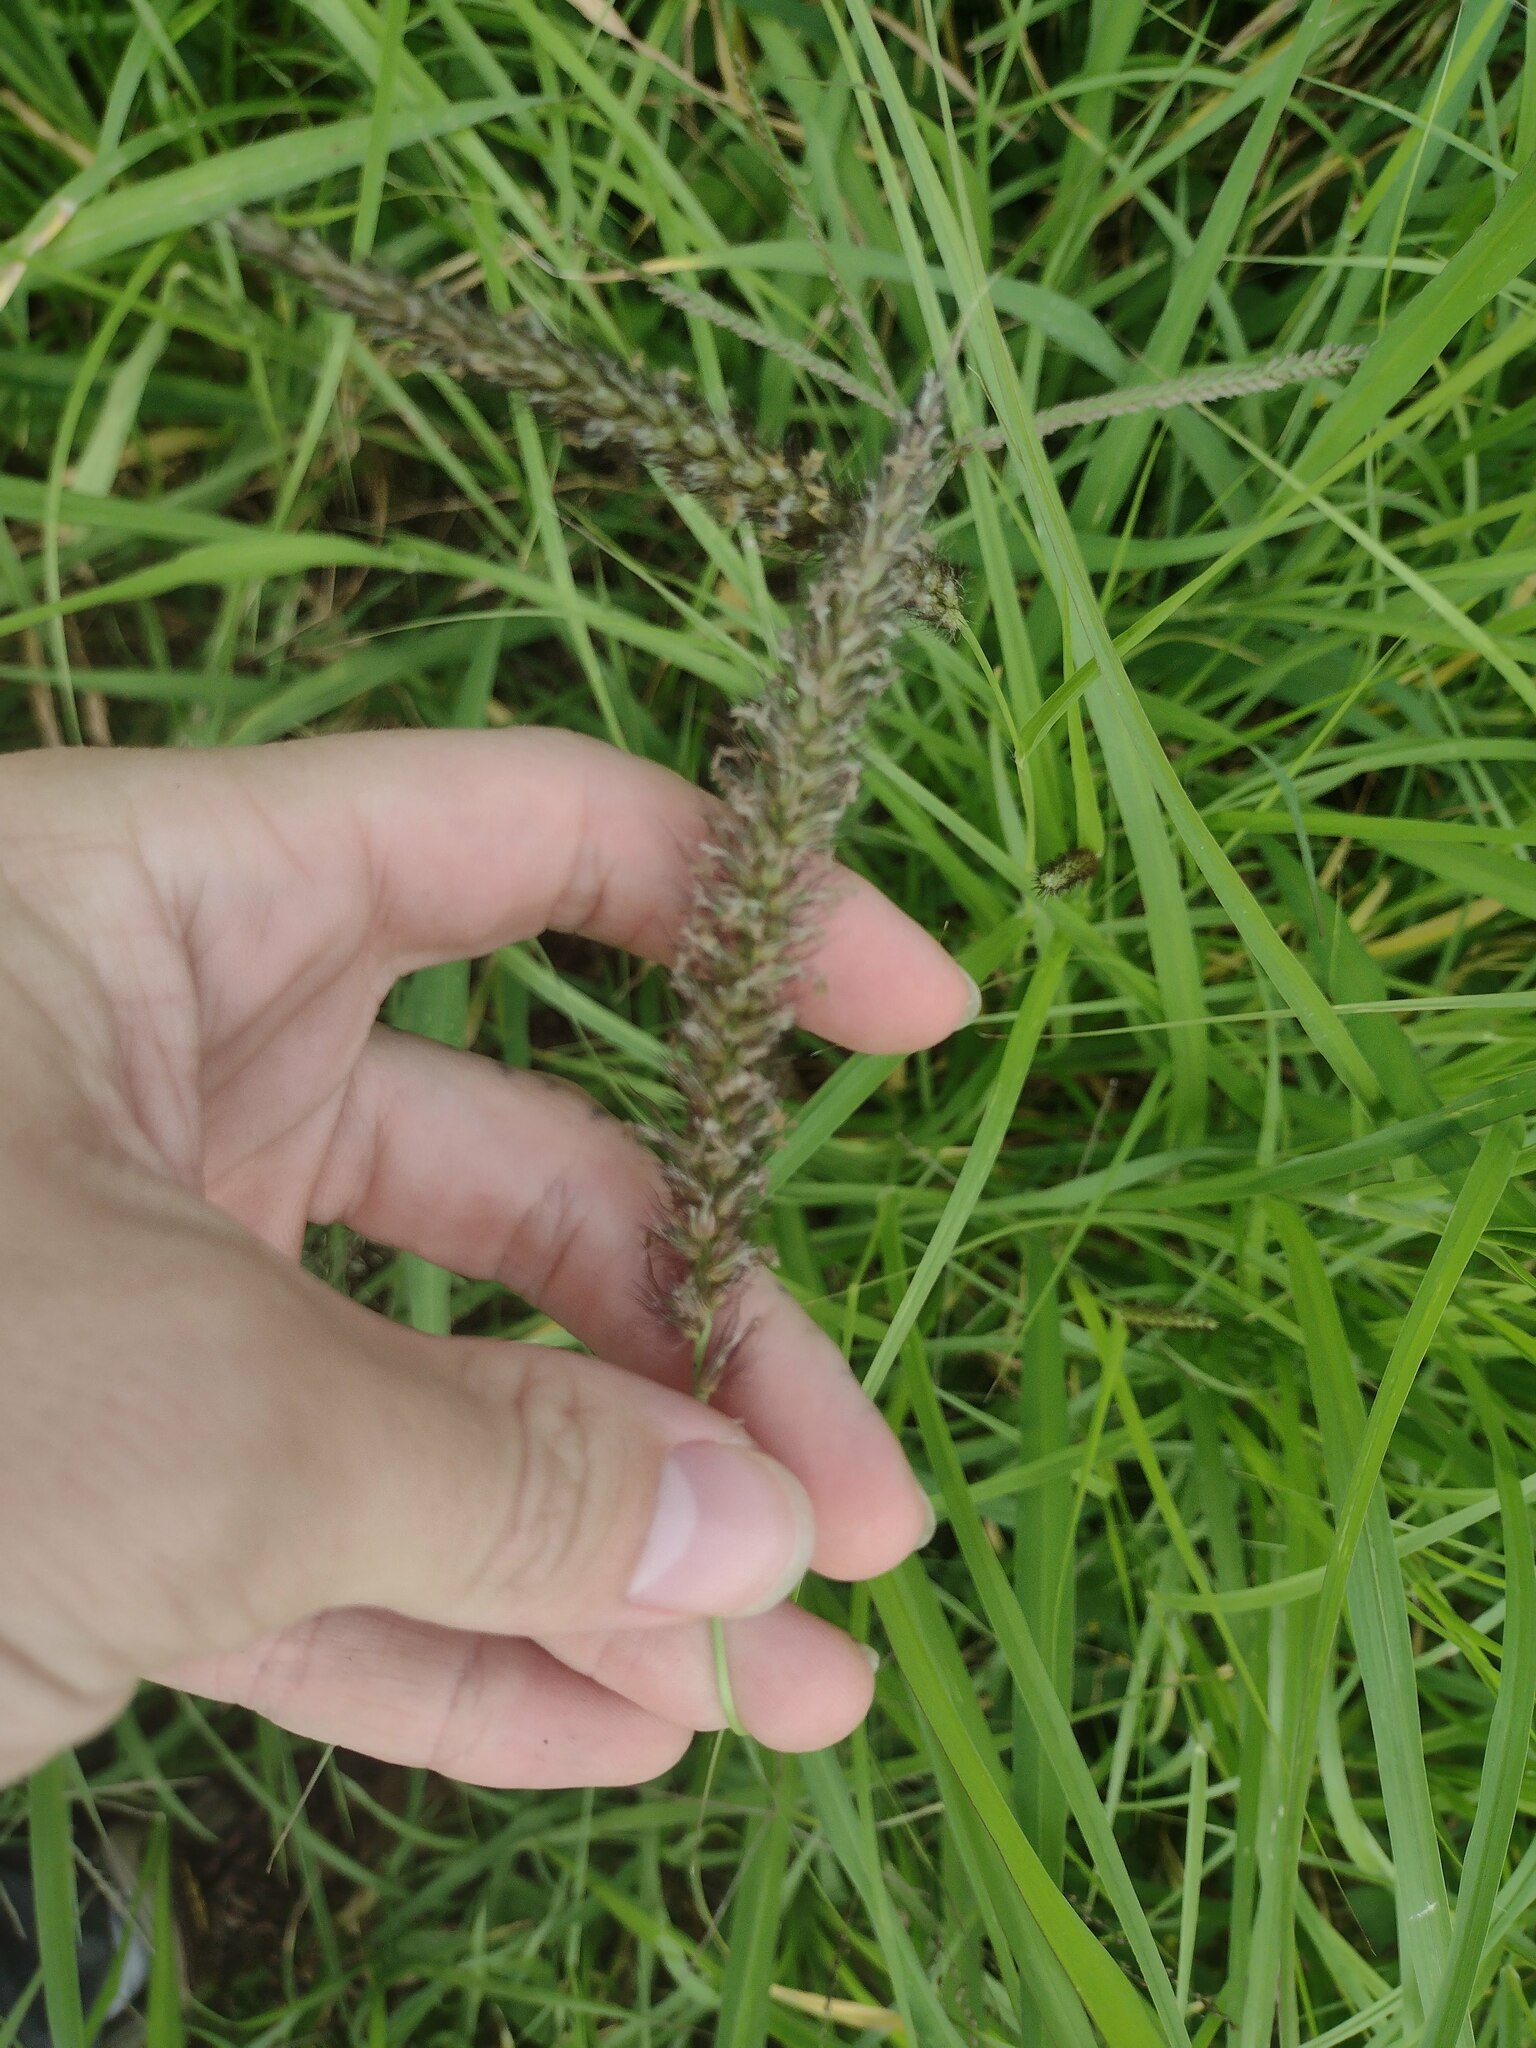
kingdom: Plantae
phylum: Tracheophyta
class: Liliopsida
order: Poales
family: Poaceae
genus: Cenchrus
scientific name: Cenchrus ciliaris
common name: Buffelgrass
